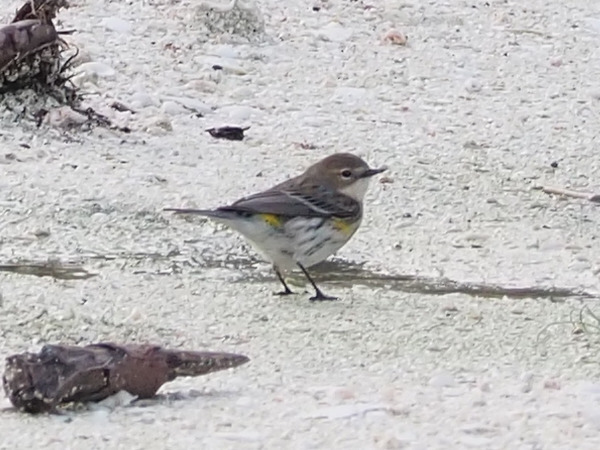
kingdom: Animalia
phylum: Chordata
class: Aves
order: Passeriformes
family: Parulidae
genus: Setophaga
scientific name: Setophaga coronata
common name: Myrtle warbler
